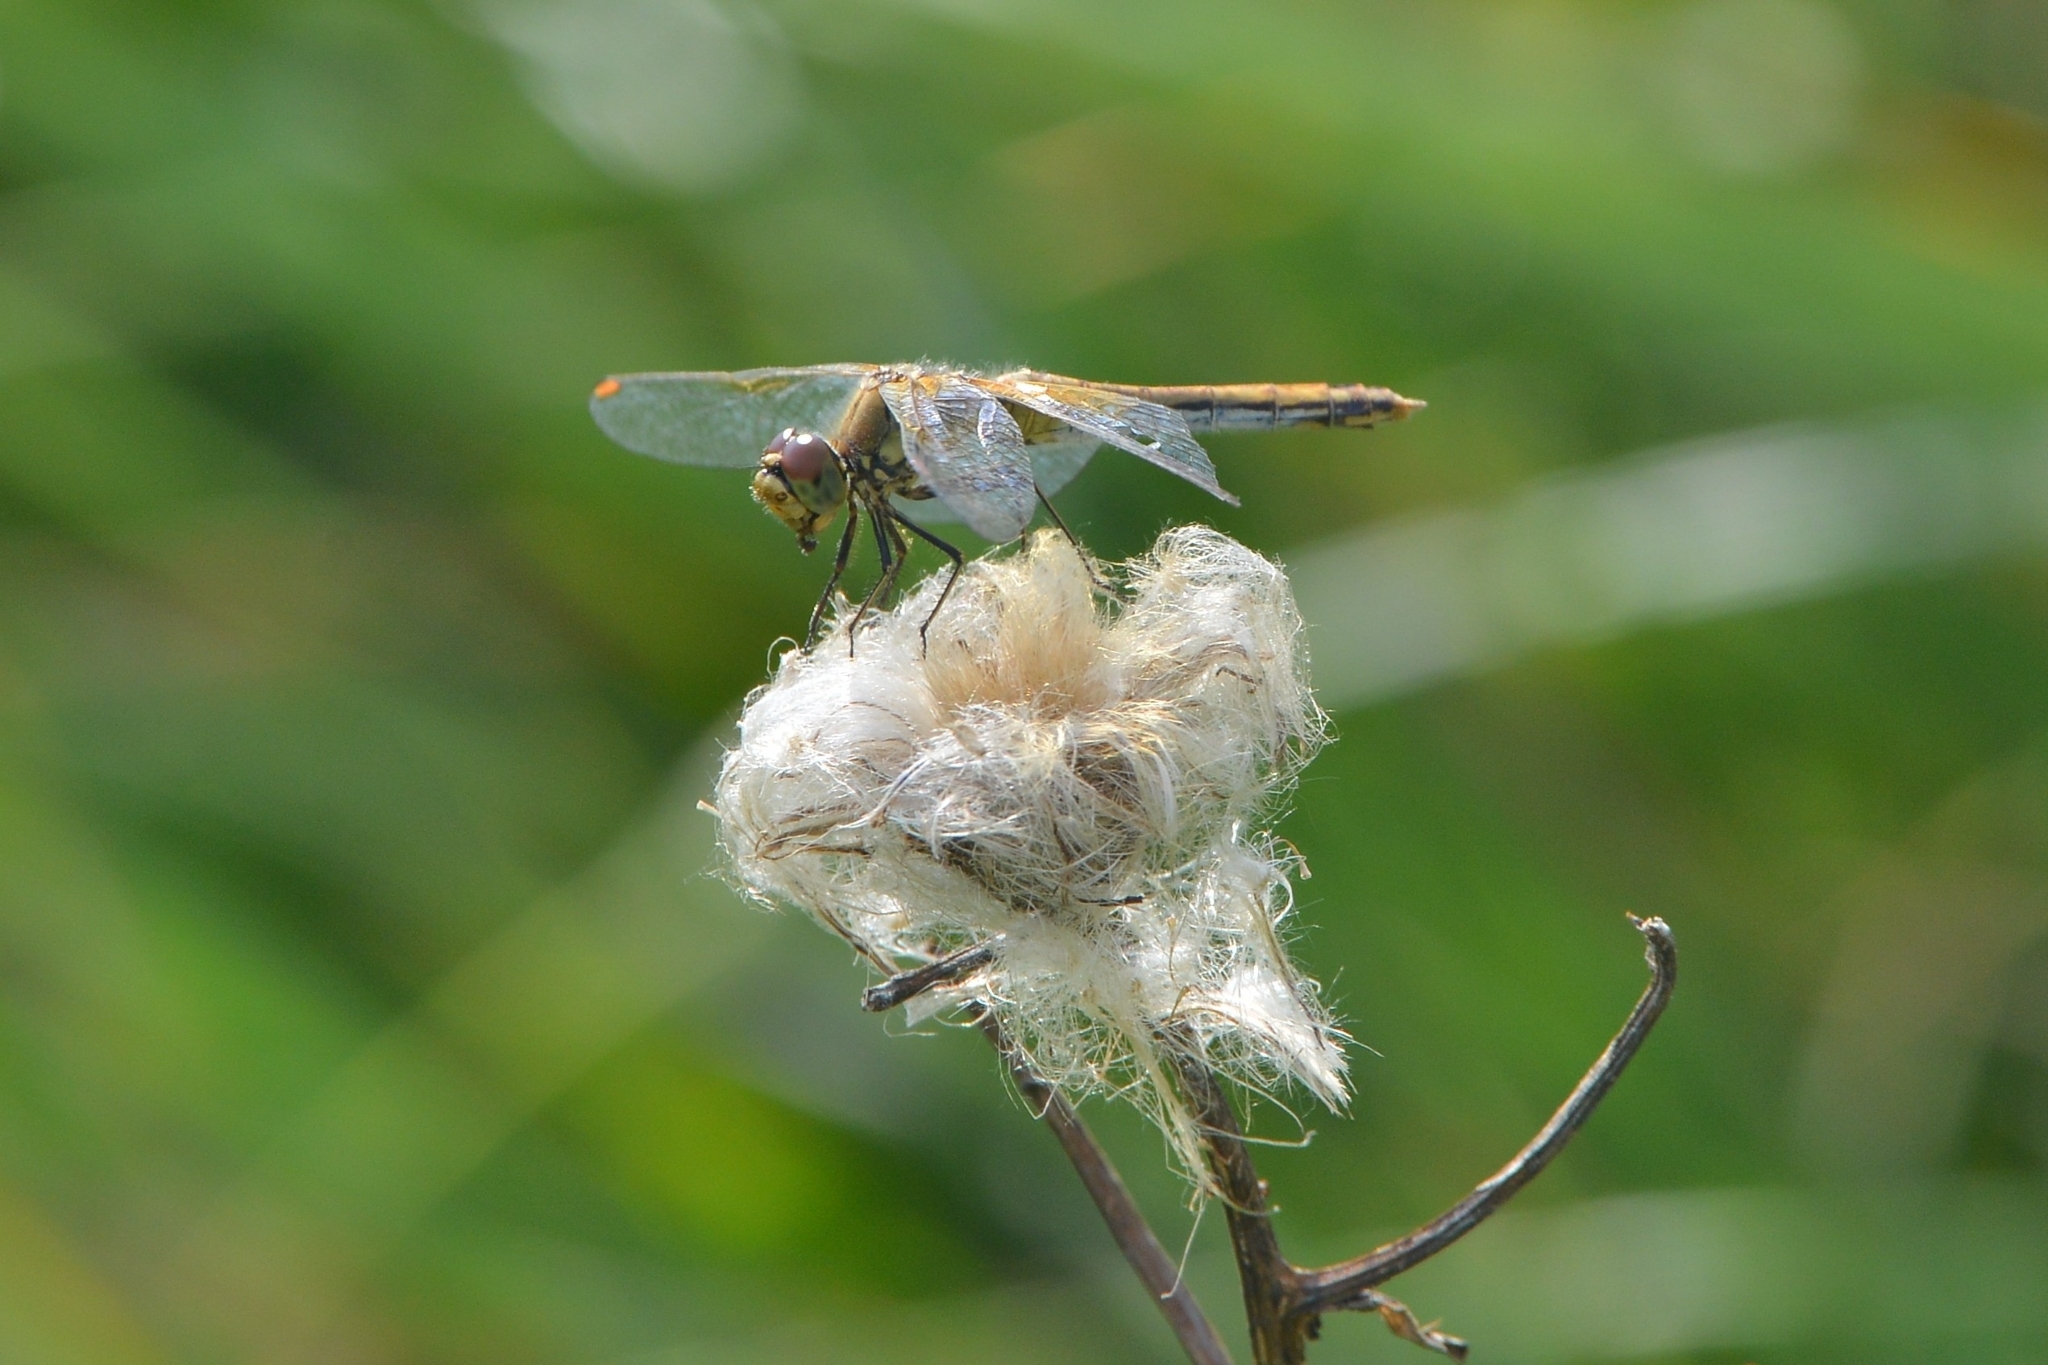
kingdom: Animalia
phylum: Arthropoda
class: Insecta
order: Odonata
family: Libellulidae
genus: Sympetrum
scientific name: Sympetrum flaveolum
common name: Yellow-winged darter
